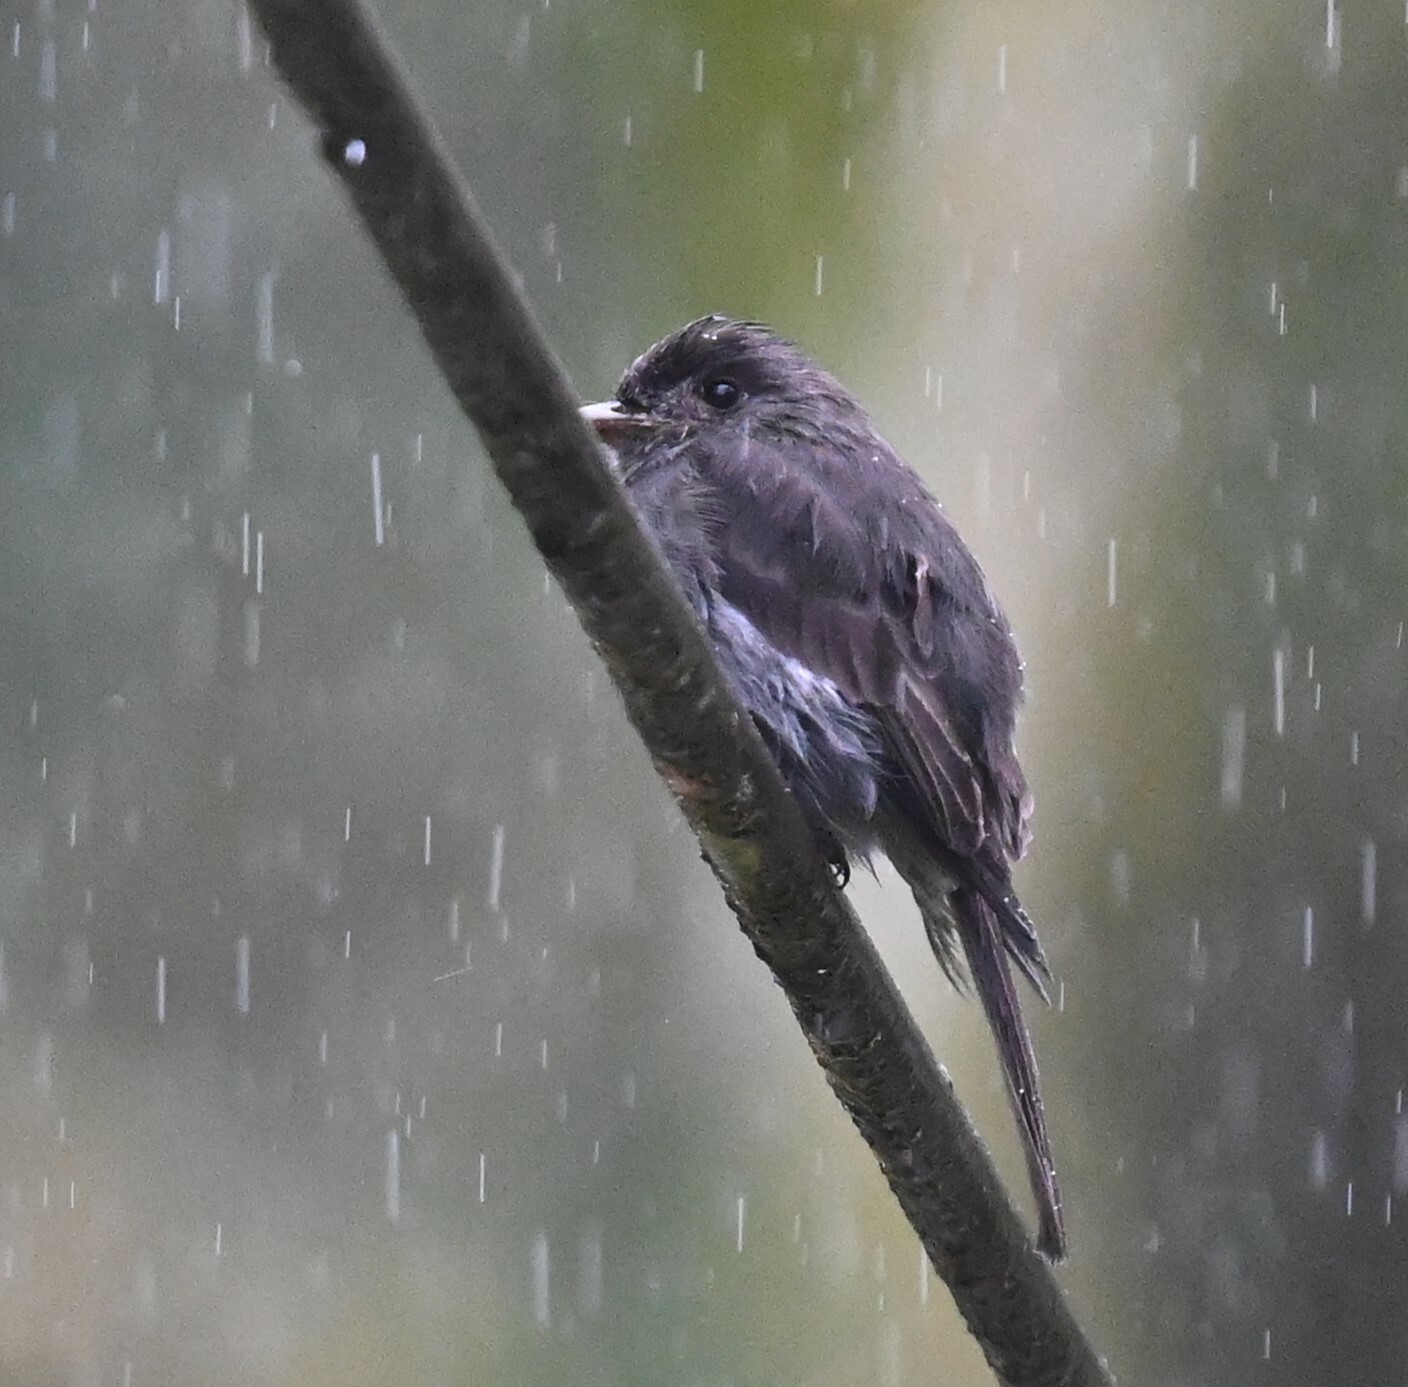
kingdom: Animalia
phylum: Chordata
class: Aves
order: Passeriformes
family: Tyrannidae
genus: Contopus
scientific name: Contopus fumigatus
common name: Smoke-colored pewee
